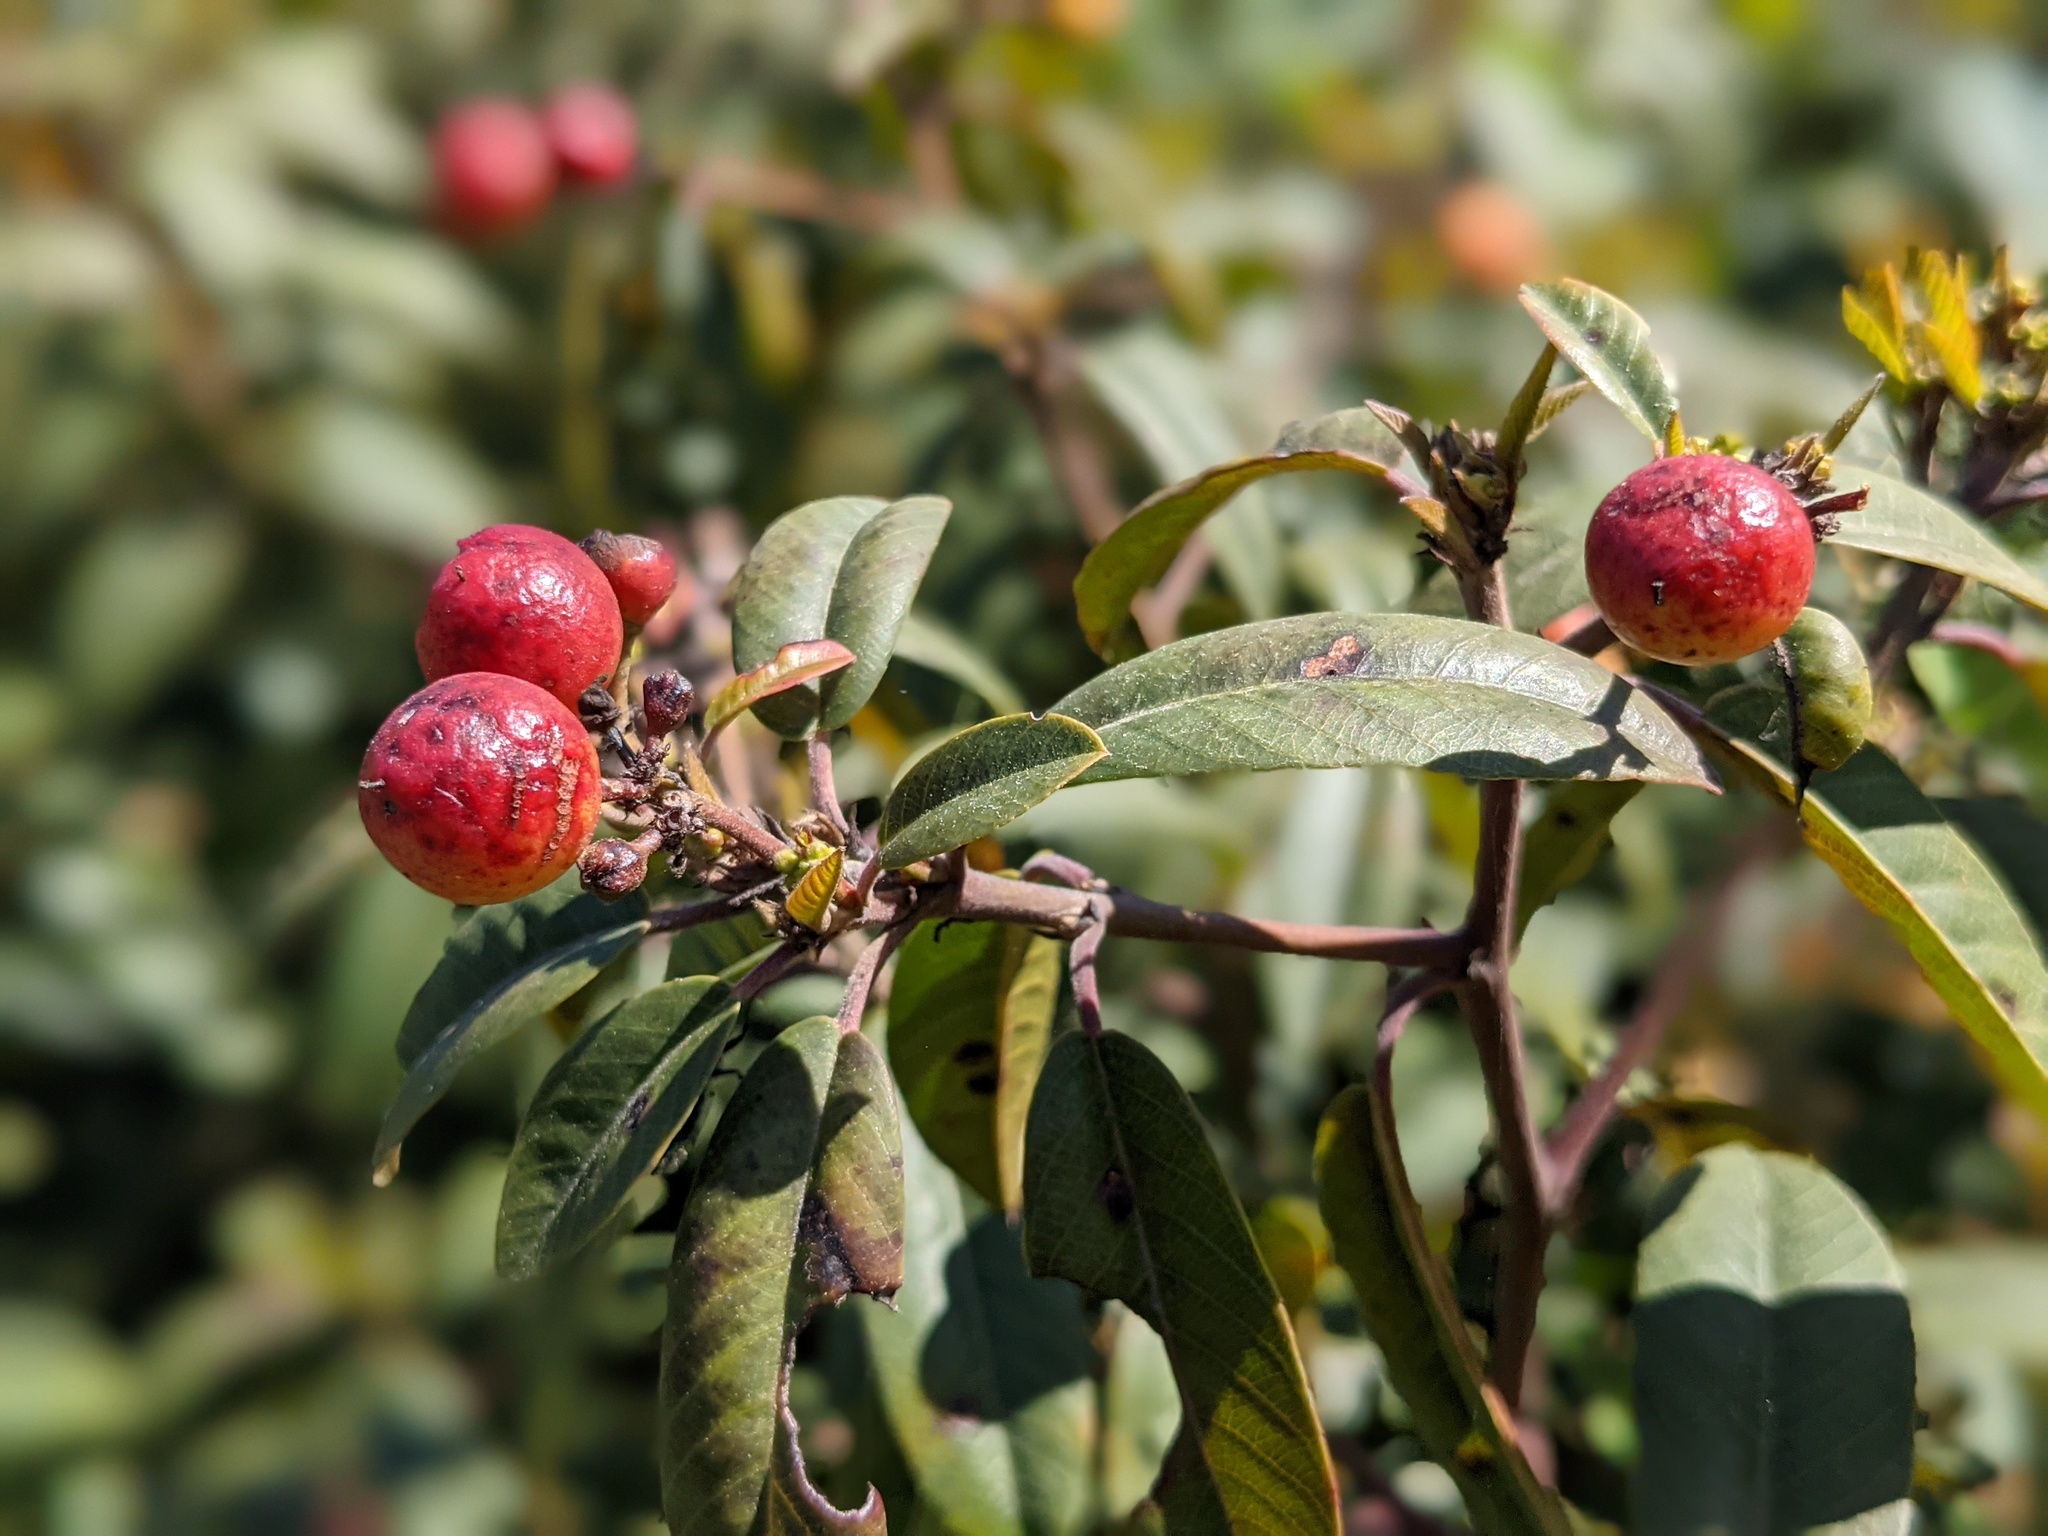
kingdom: Plantae
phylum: Tracheophyta
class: Magnoliopsida
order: Rosales
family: Rhamnaceae
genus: Frangula
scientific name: Frangula californica
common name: California buckthorn
